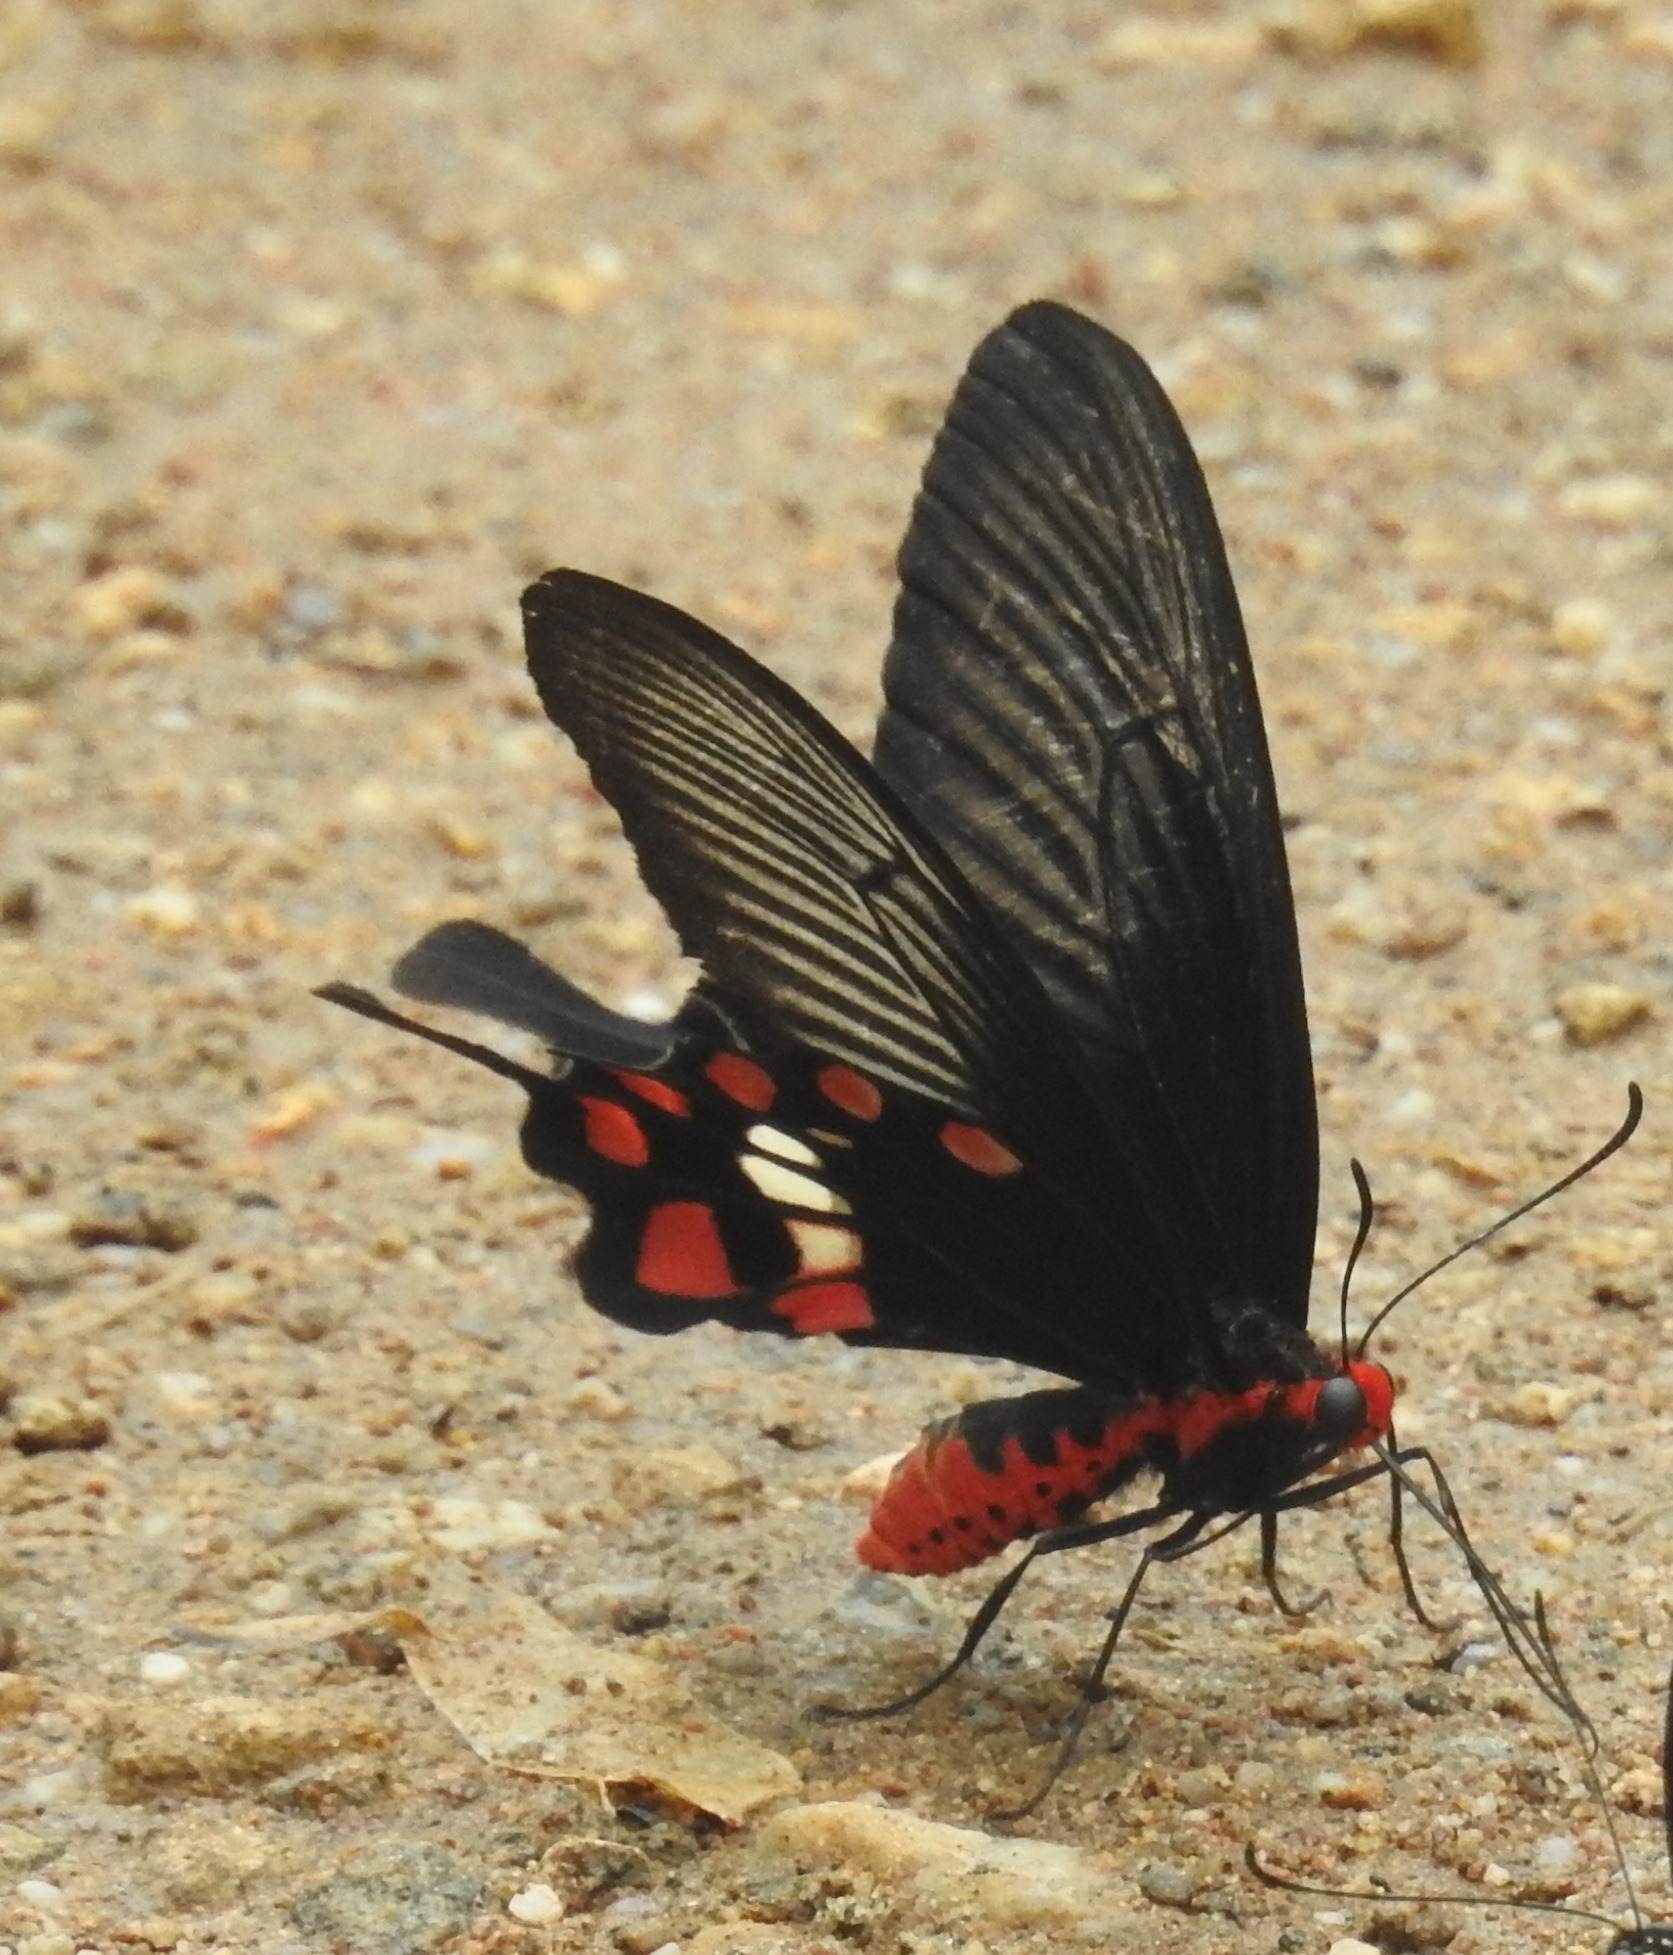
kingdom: Animalia
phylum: Arthropoda
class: Insecta
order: Lepidoptera
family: Papilionidae
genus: Pachliopta
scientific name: Pachliopta aristolochiae
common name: Common rose
